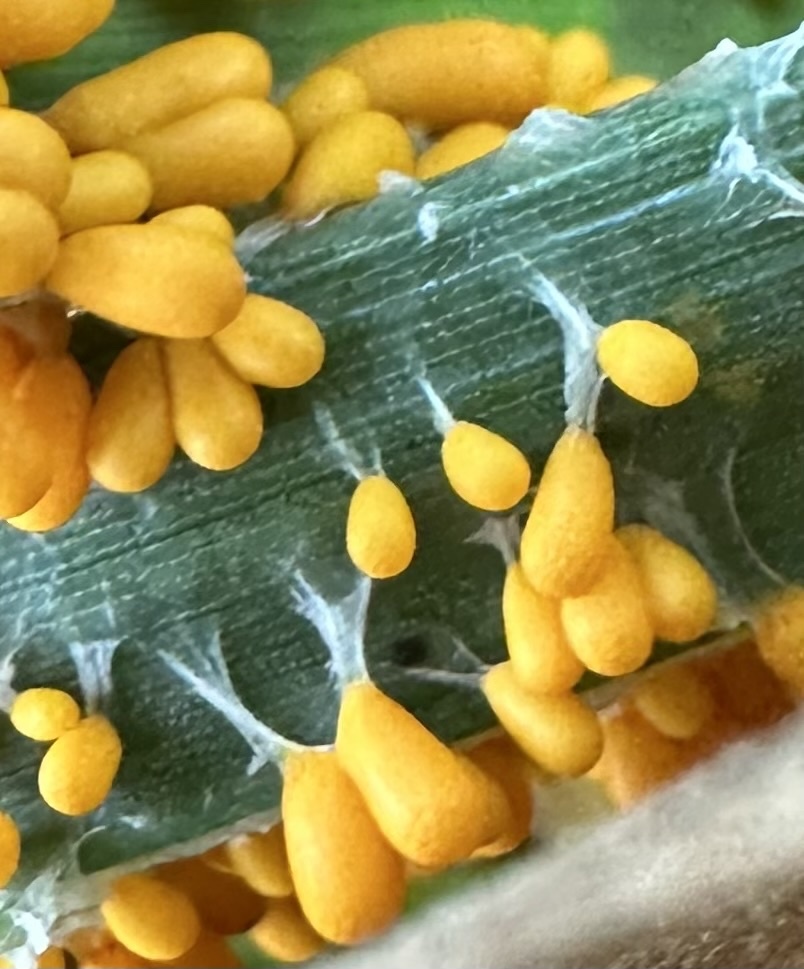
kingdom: Protozoa
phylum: Mycetozoa
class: Myxomycetes
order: Physarales
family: Physaraceae
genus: Leocarpus
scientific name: Leocarpus fragilis
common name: Insect-egg slime
